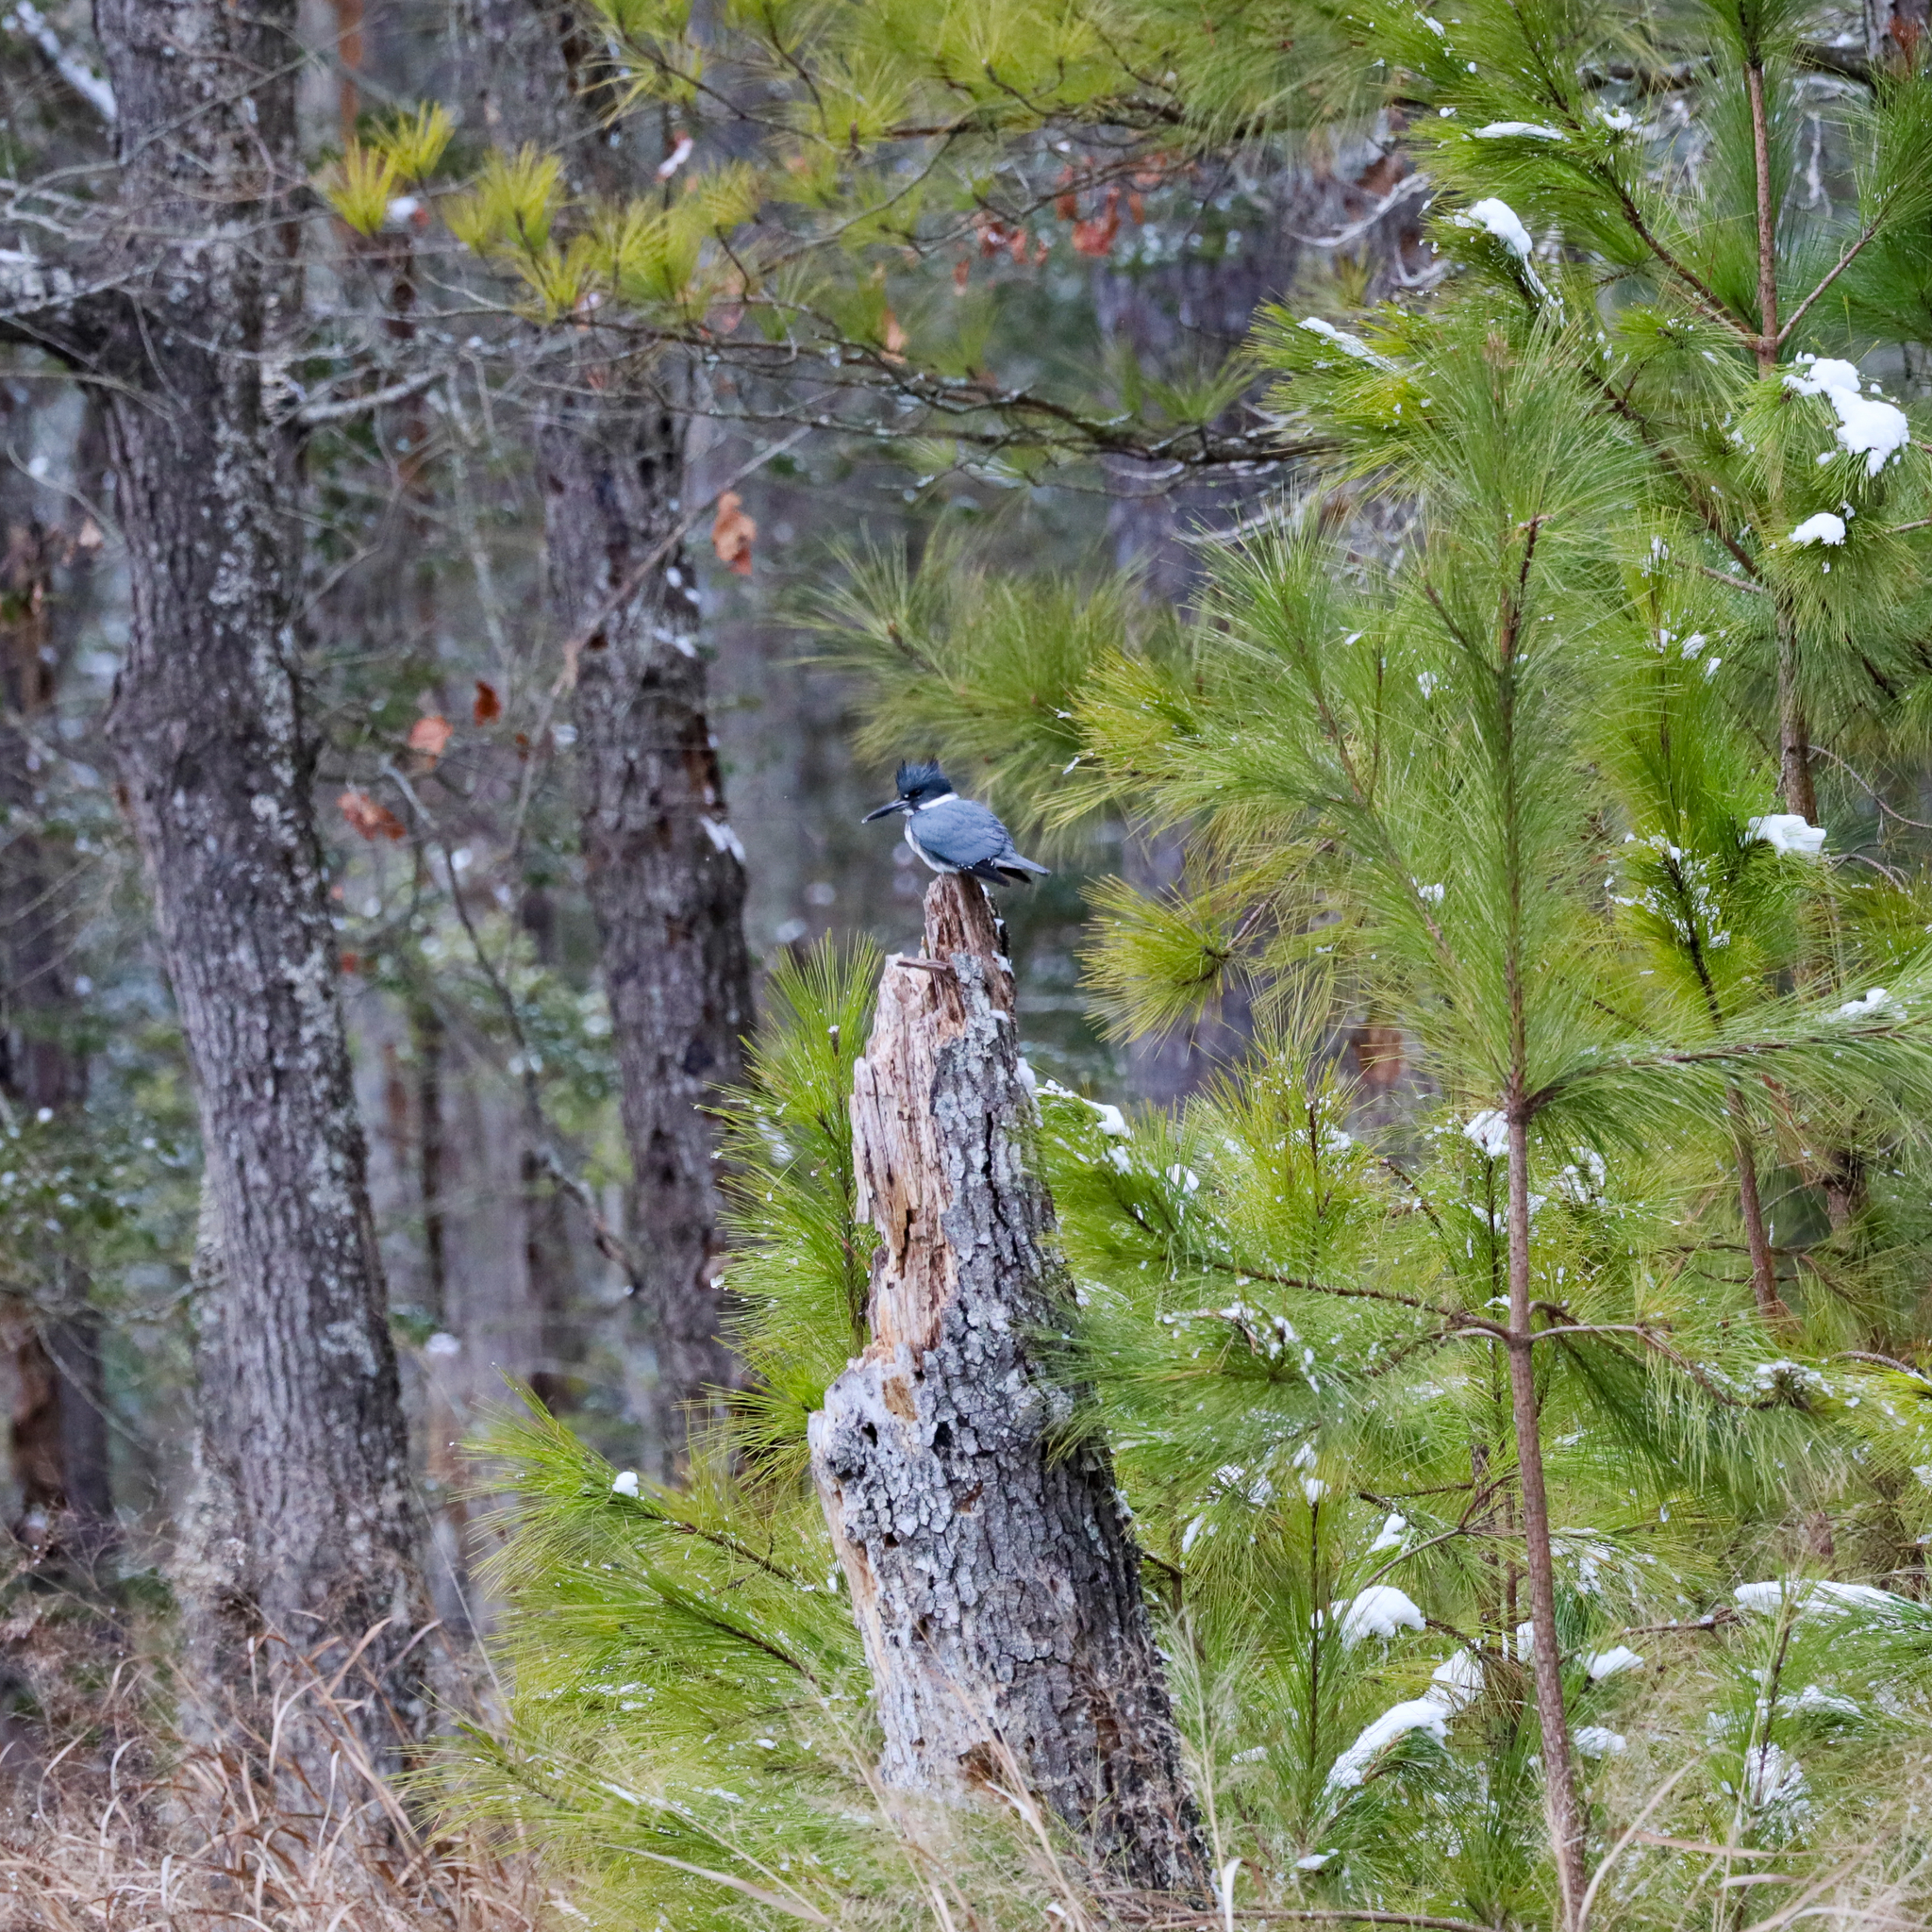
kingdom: Animalia
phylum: Chordata
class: Aves
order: Coraciiformes
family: Alcedinidae
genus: Megaceryle
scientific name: Megaceryle alcyon
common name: Belted kingfisher
